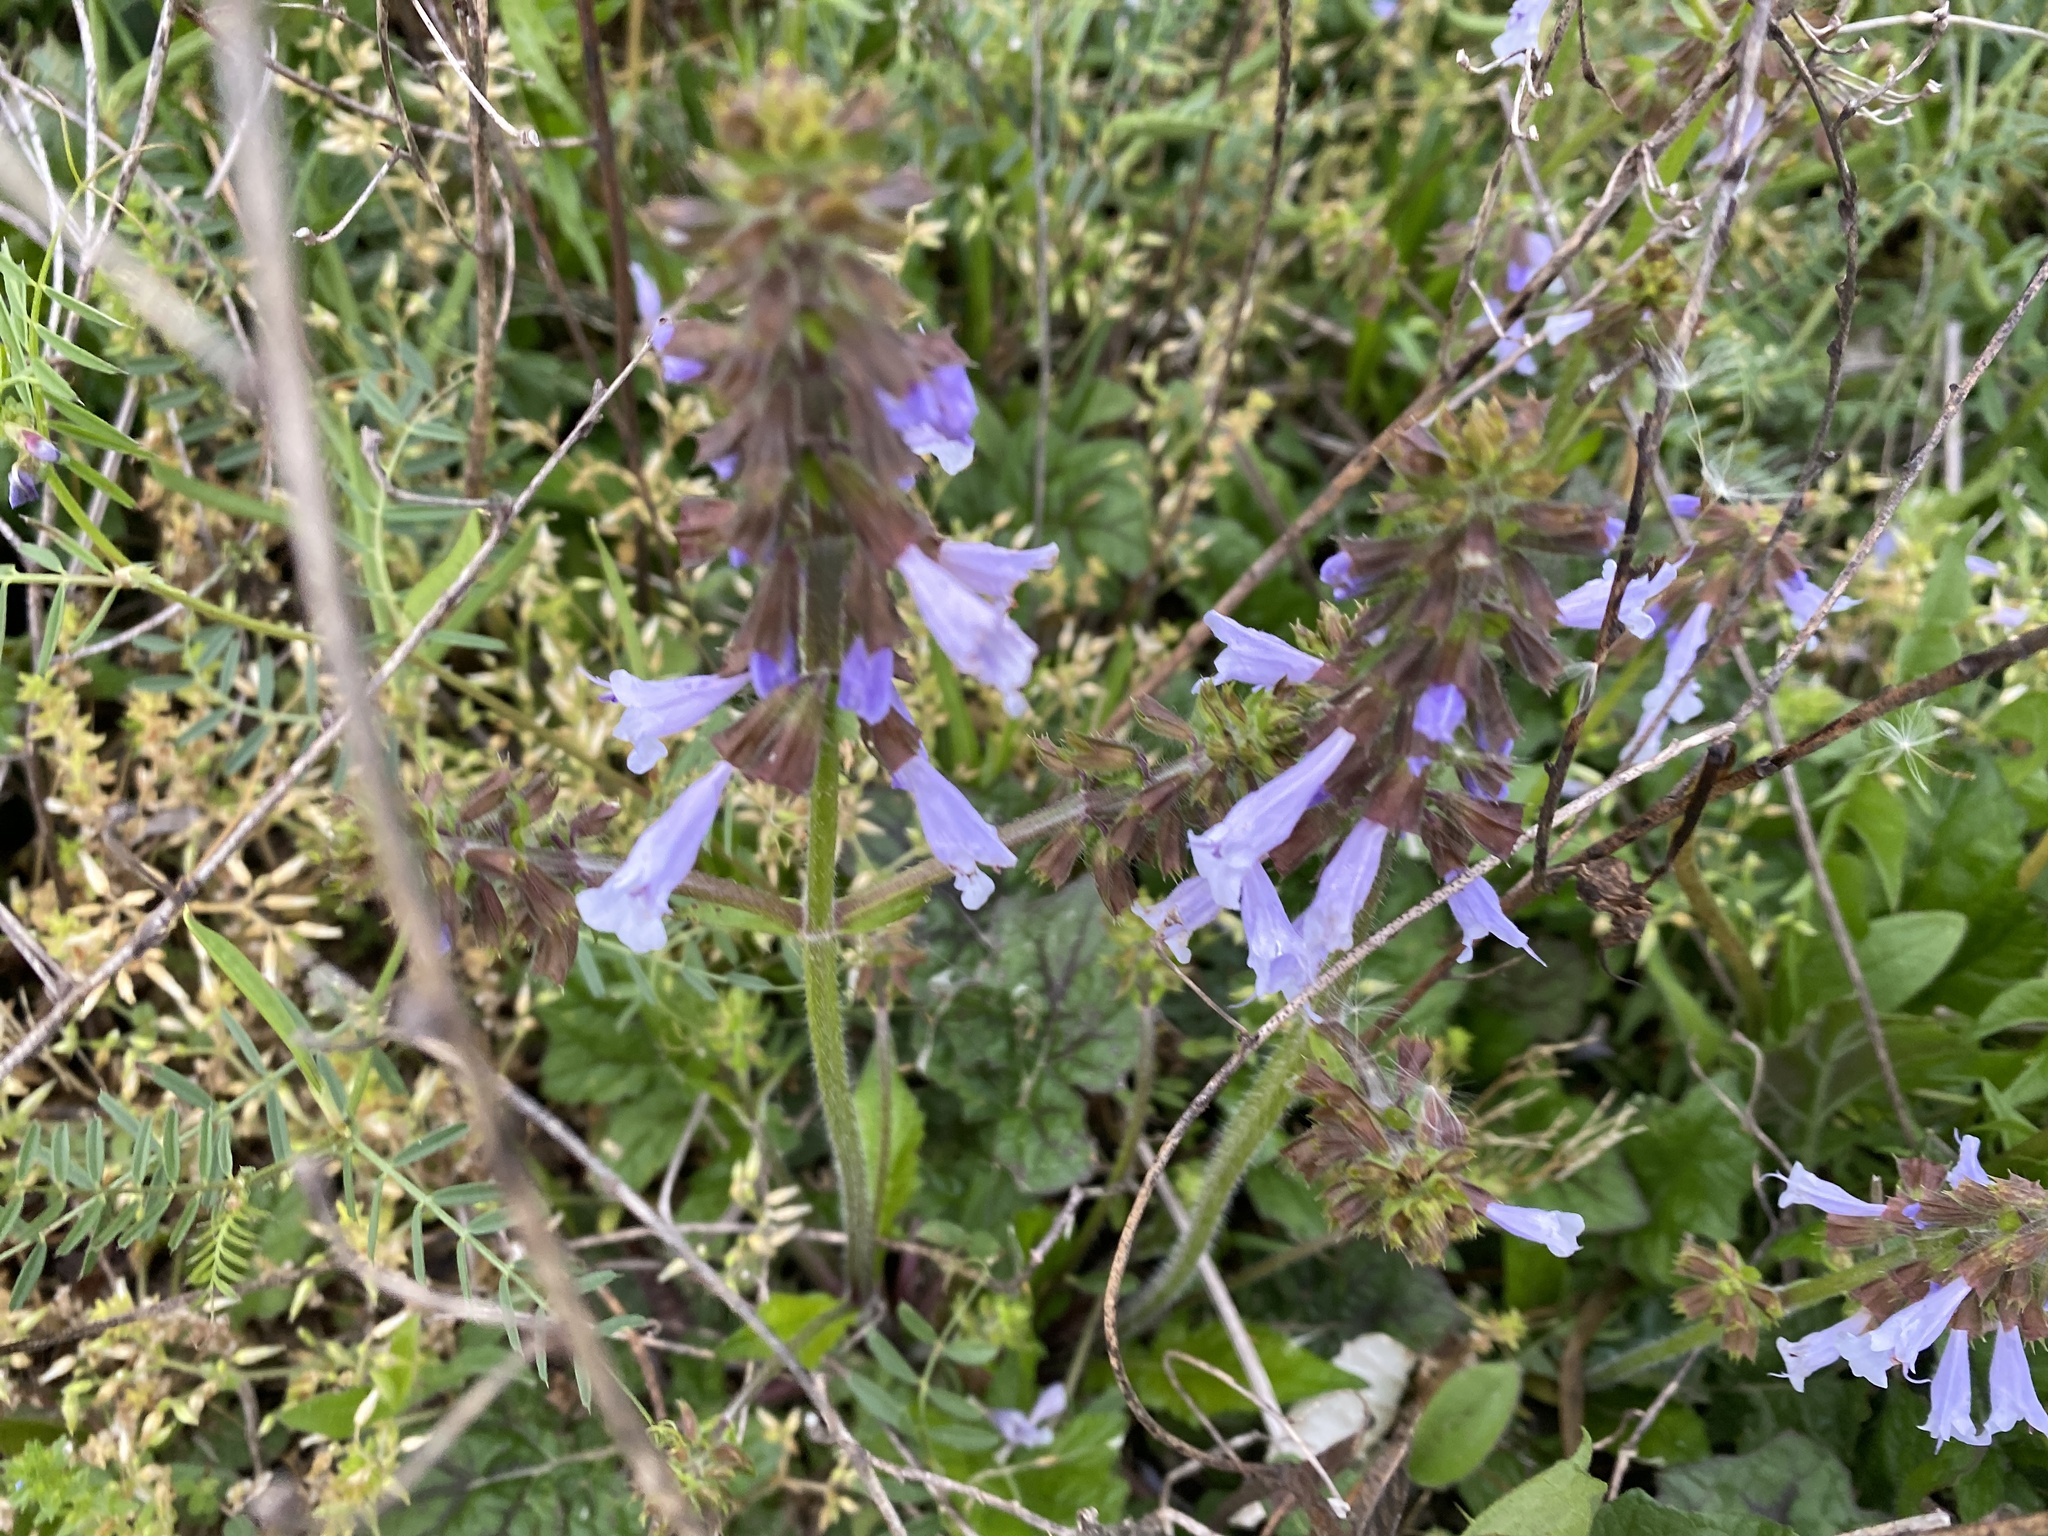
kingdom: Plantae
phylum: Tracheophyta
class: Magnoliopsida
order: Lamiales
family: Lamiaceae
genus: Salvia
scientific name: Salvia lyrata
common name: Cancerweed
